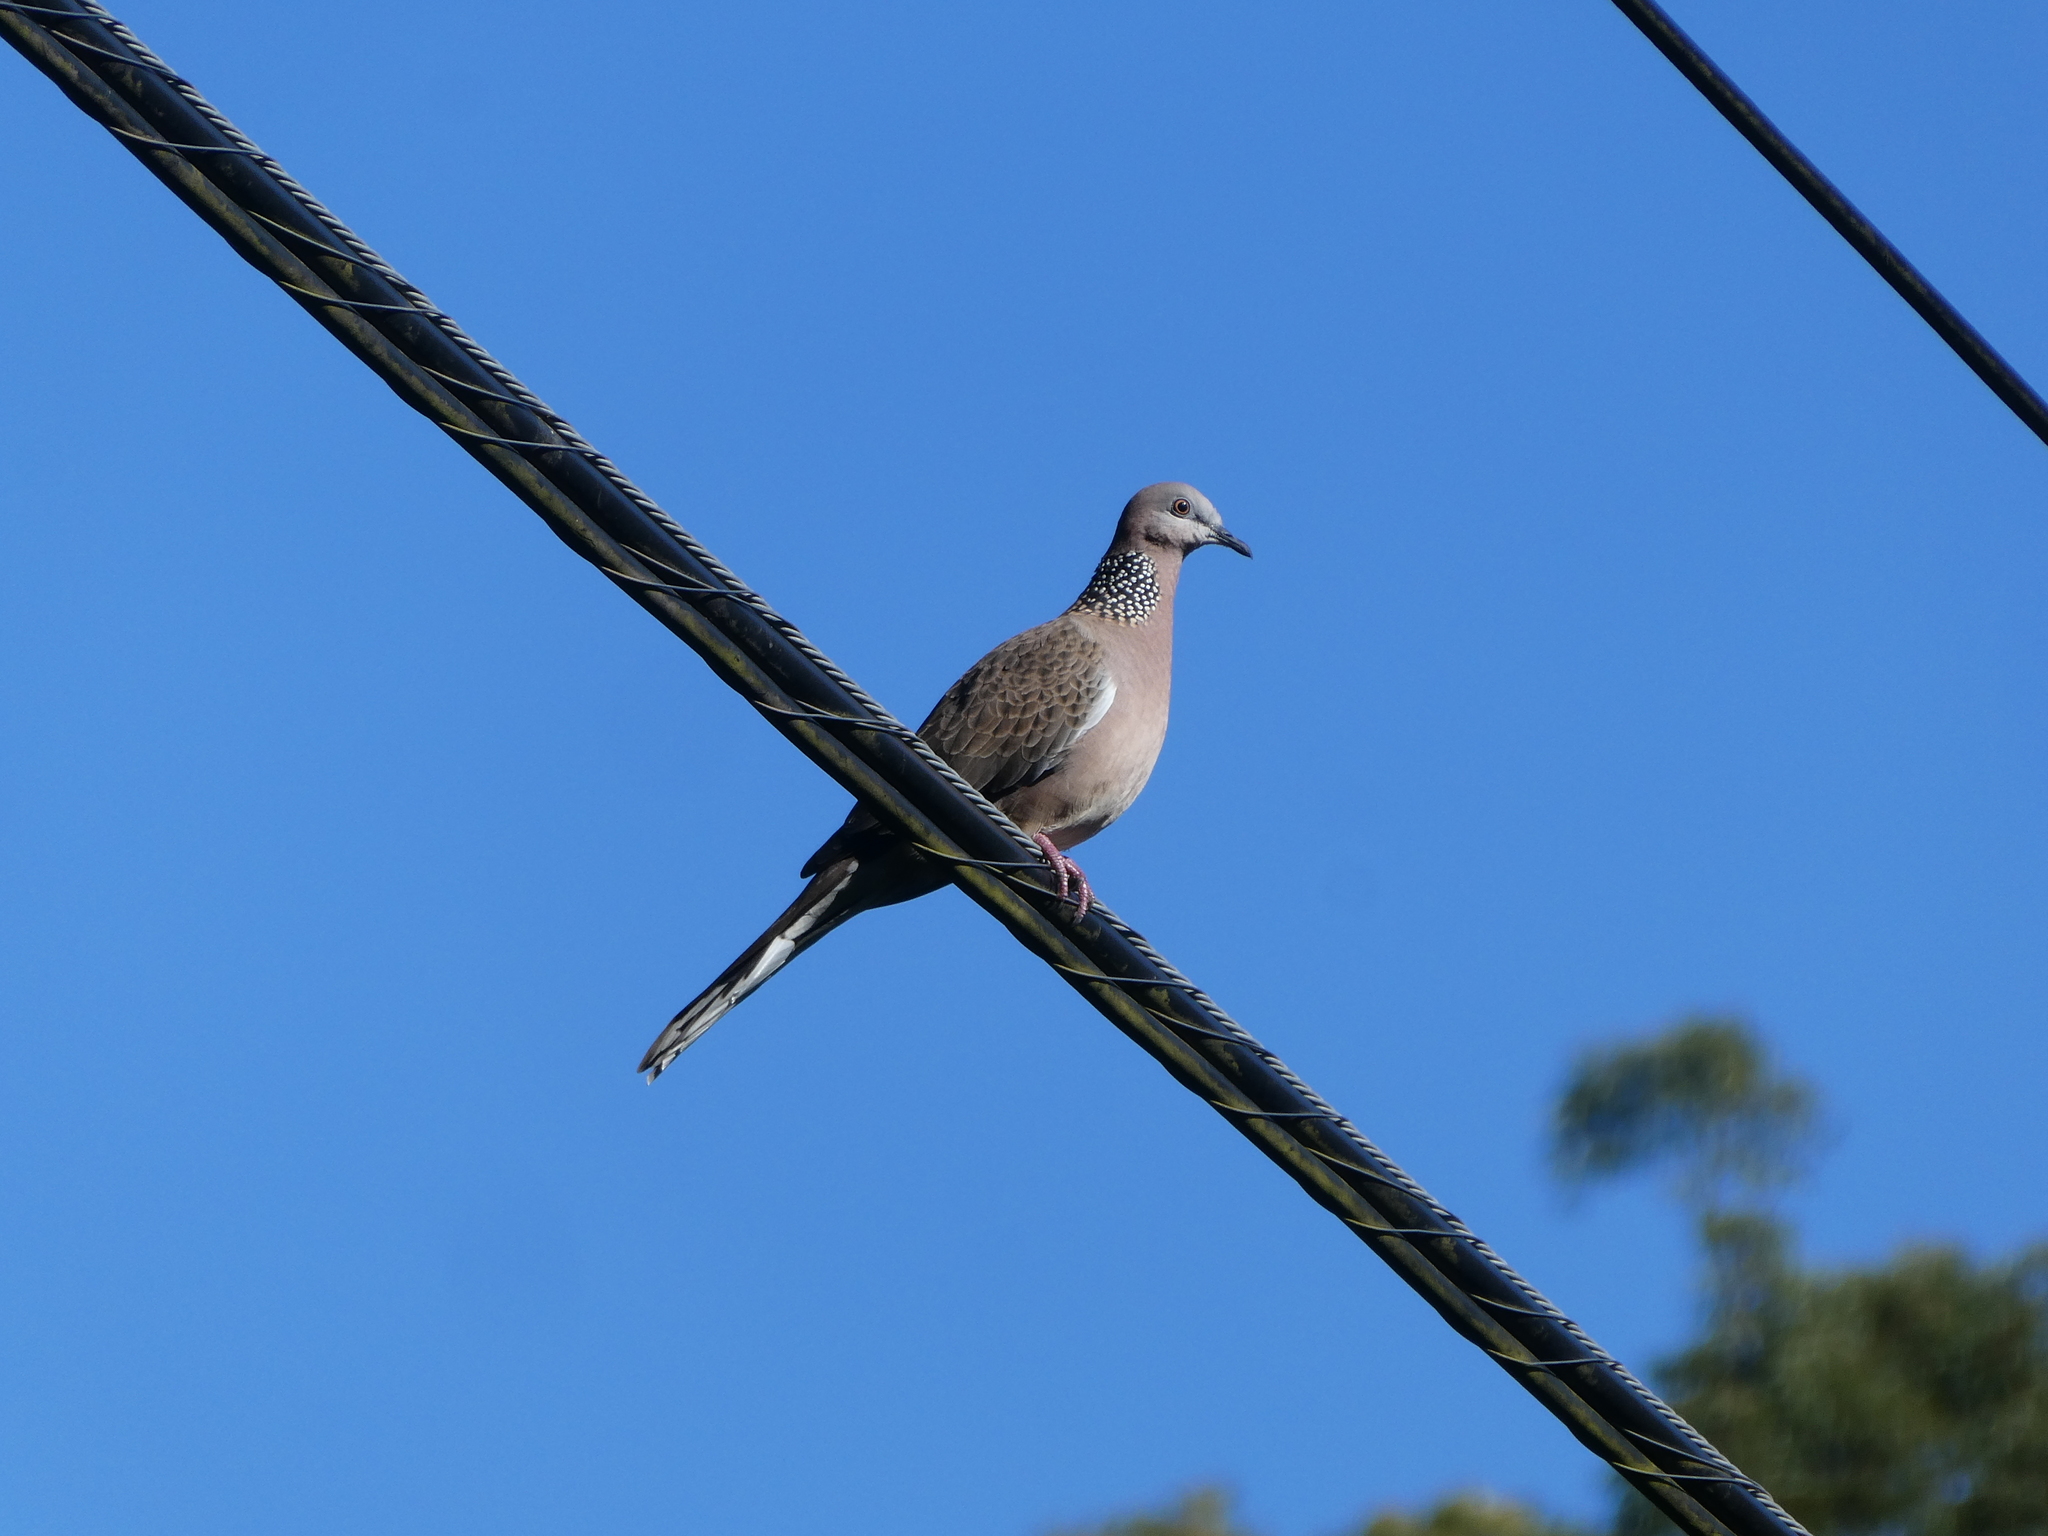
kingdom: Animalia
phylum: Chordata
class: Aves
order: Columbiformes
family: Columbidae
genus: Spilopelia
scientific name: Spilopelia chinensis
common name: Spotted dove
